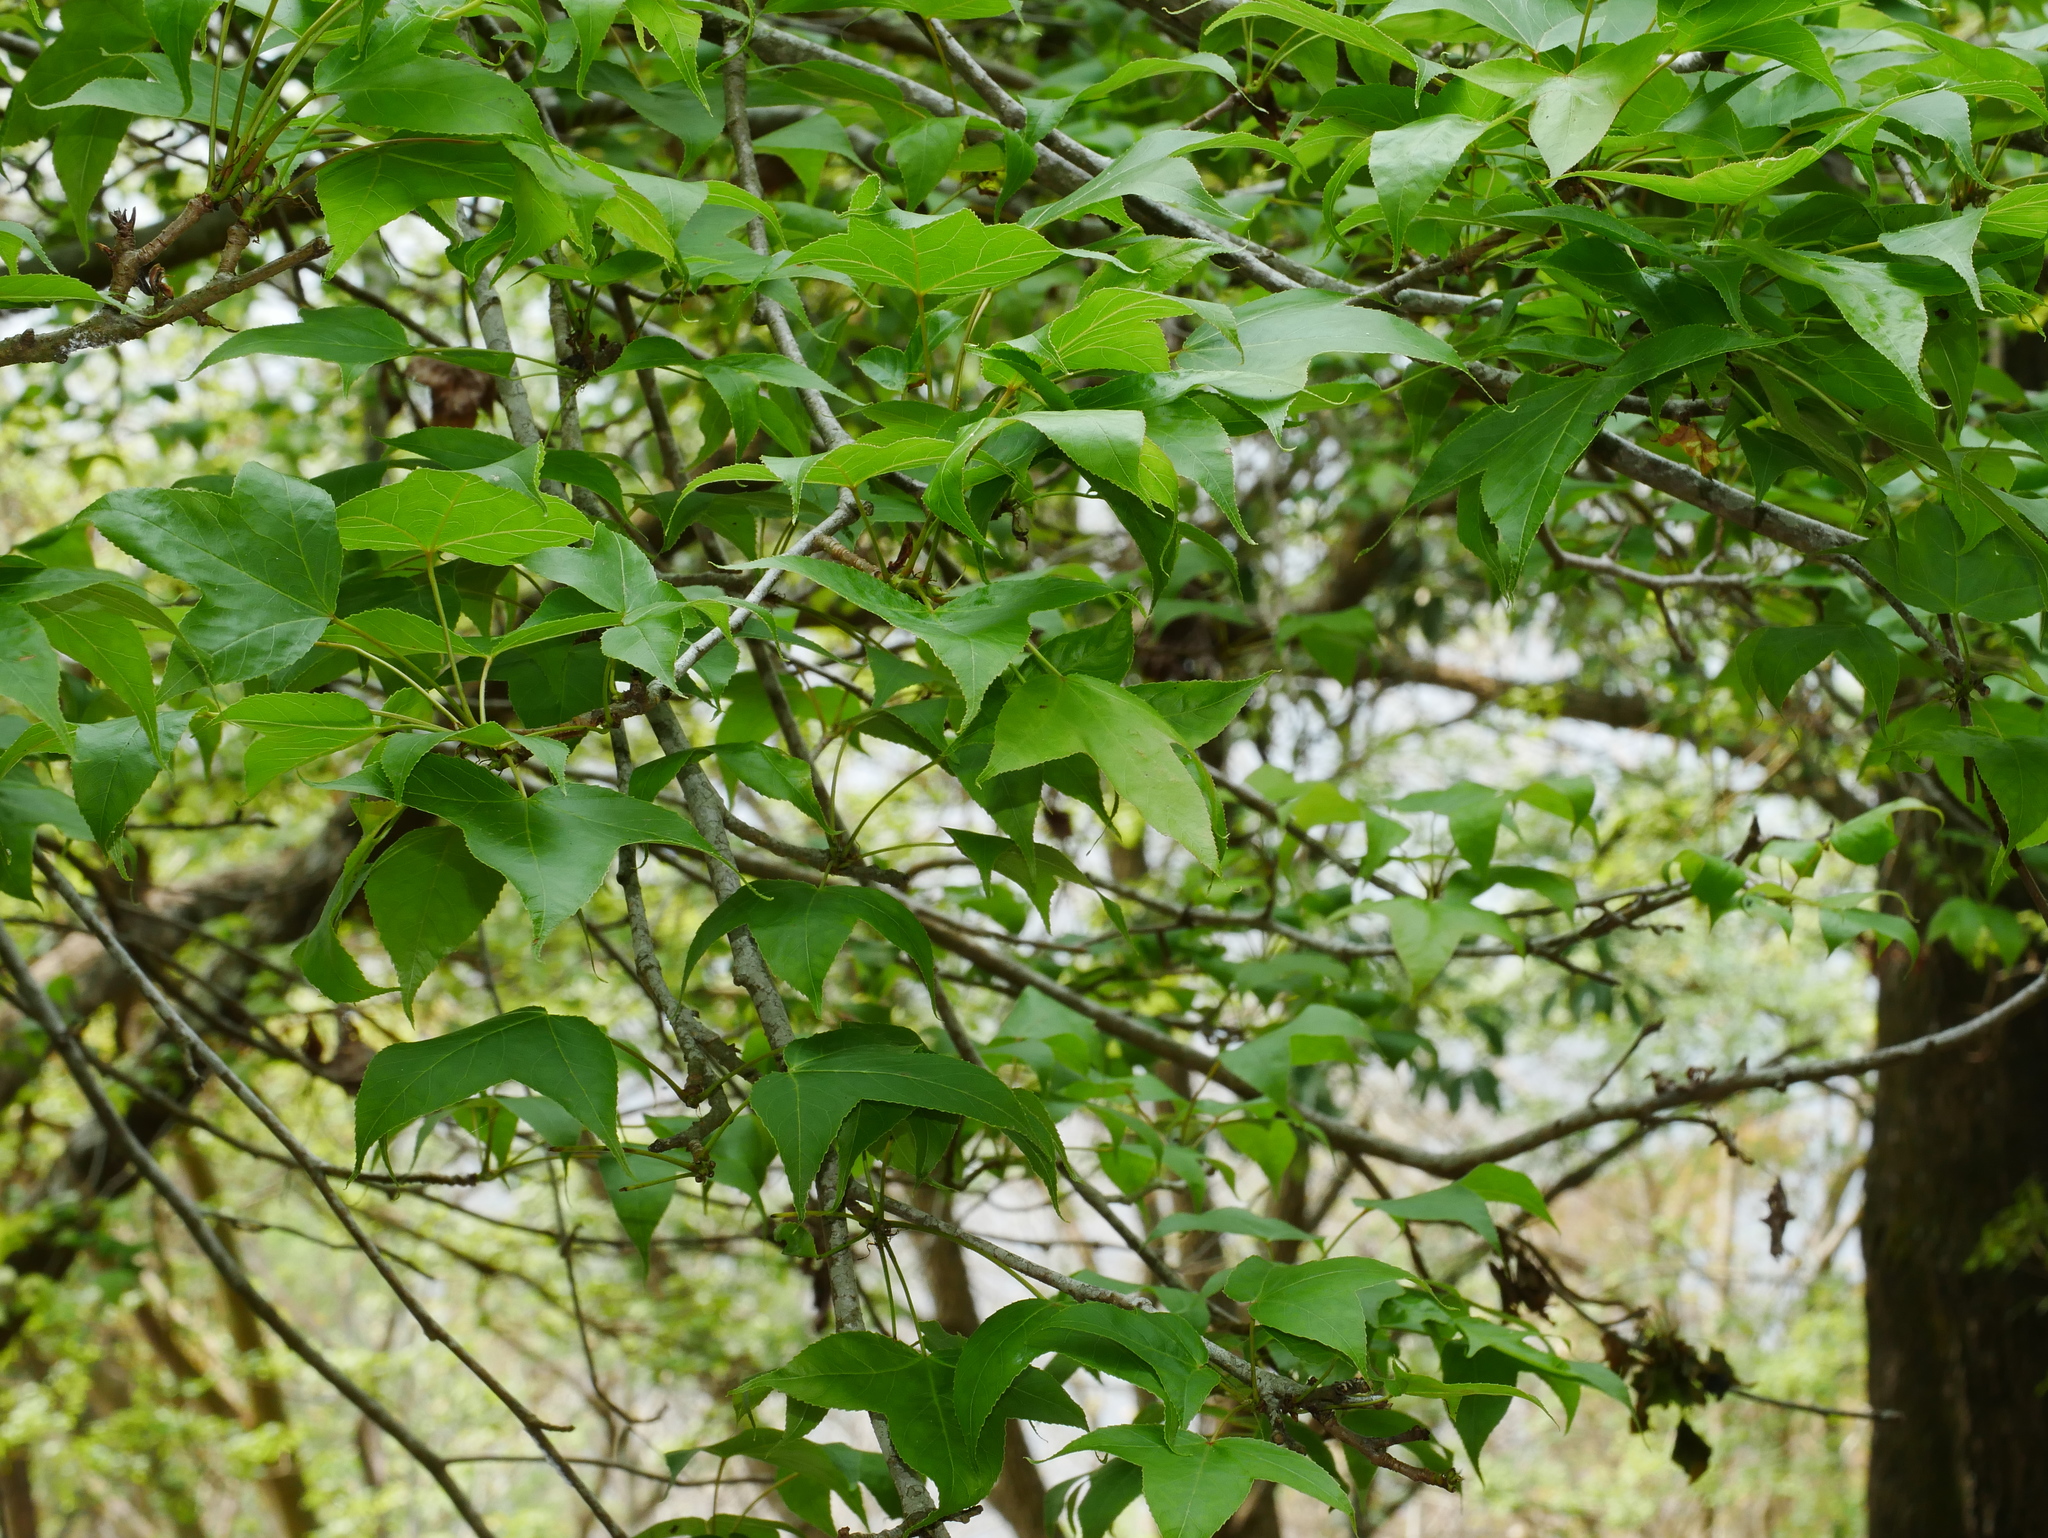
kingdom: Plantae
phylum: Tracheophyta
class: Magnoliopsida
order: Saxifragales
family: Altingiaceae
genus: Liquidambar
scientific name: Liquidambar formosana
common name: Chinese sweet gum
